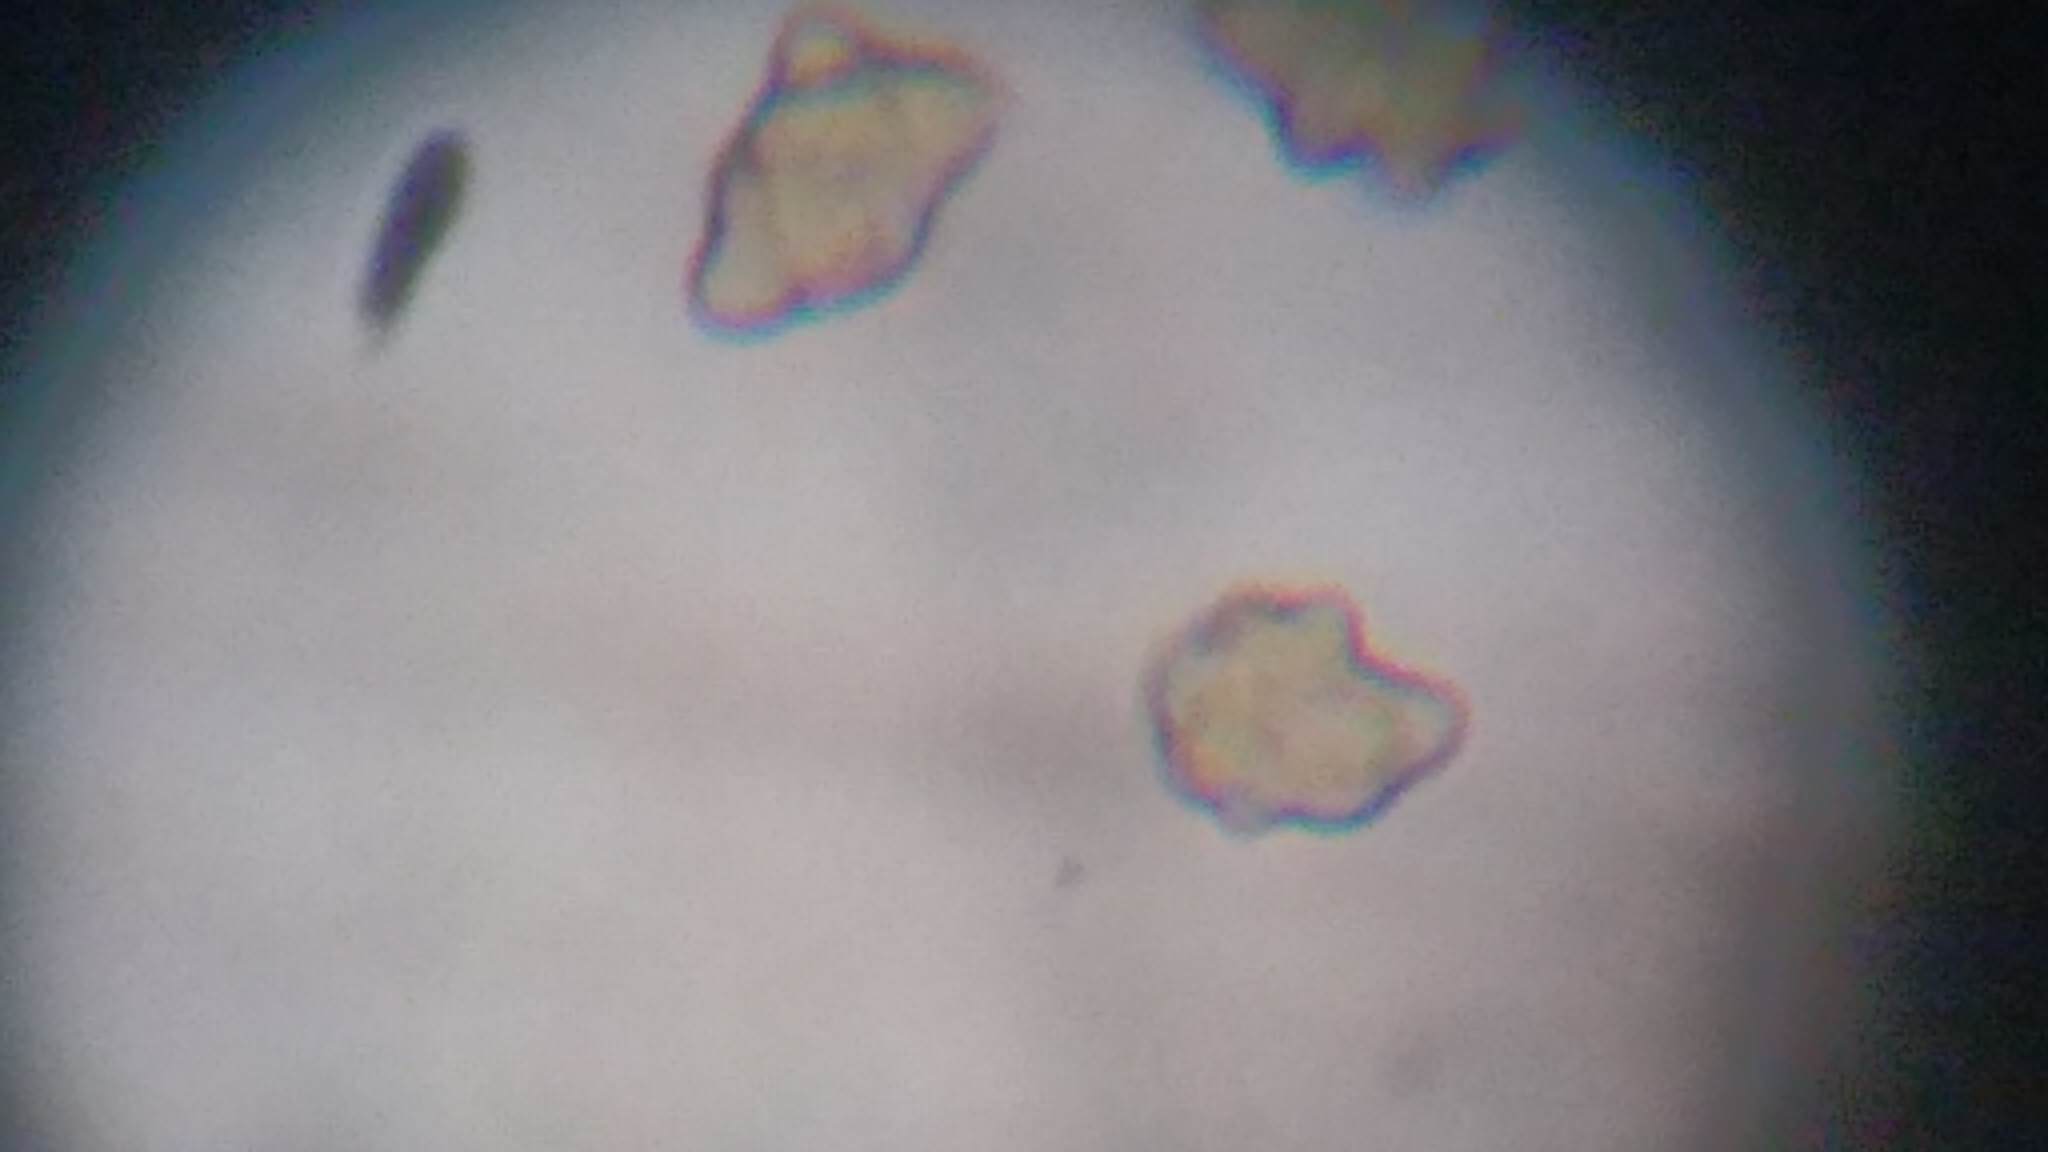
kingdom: Fungi
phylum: Basidiomycota
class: Agaricomycetes
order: Agaricales
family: Inocybaceae
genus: Inocybe
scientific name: Inocybe tubarioides
